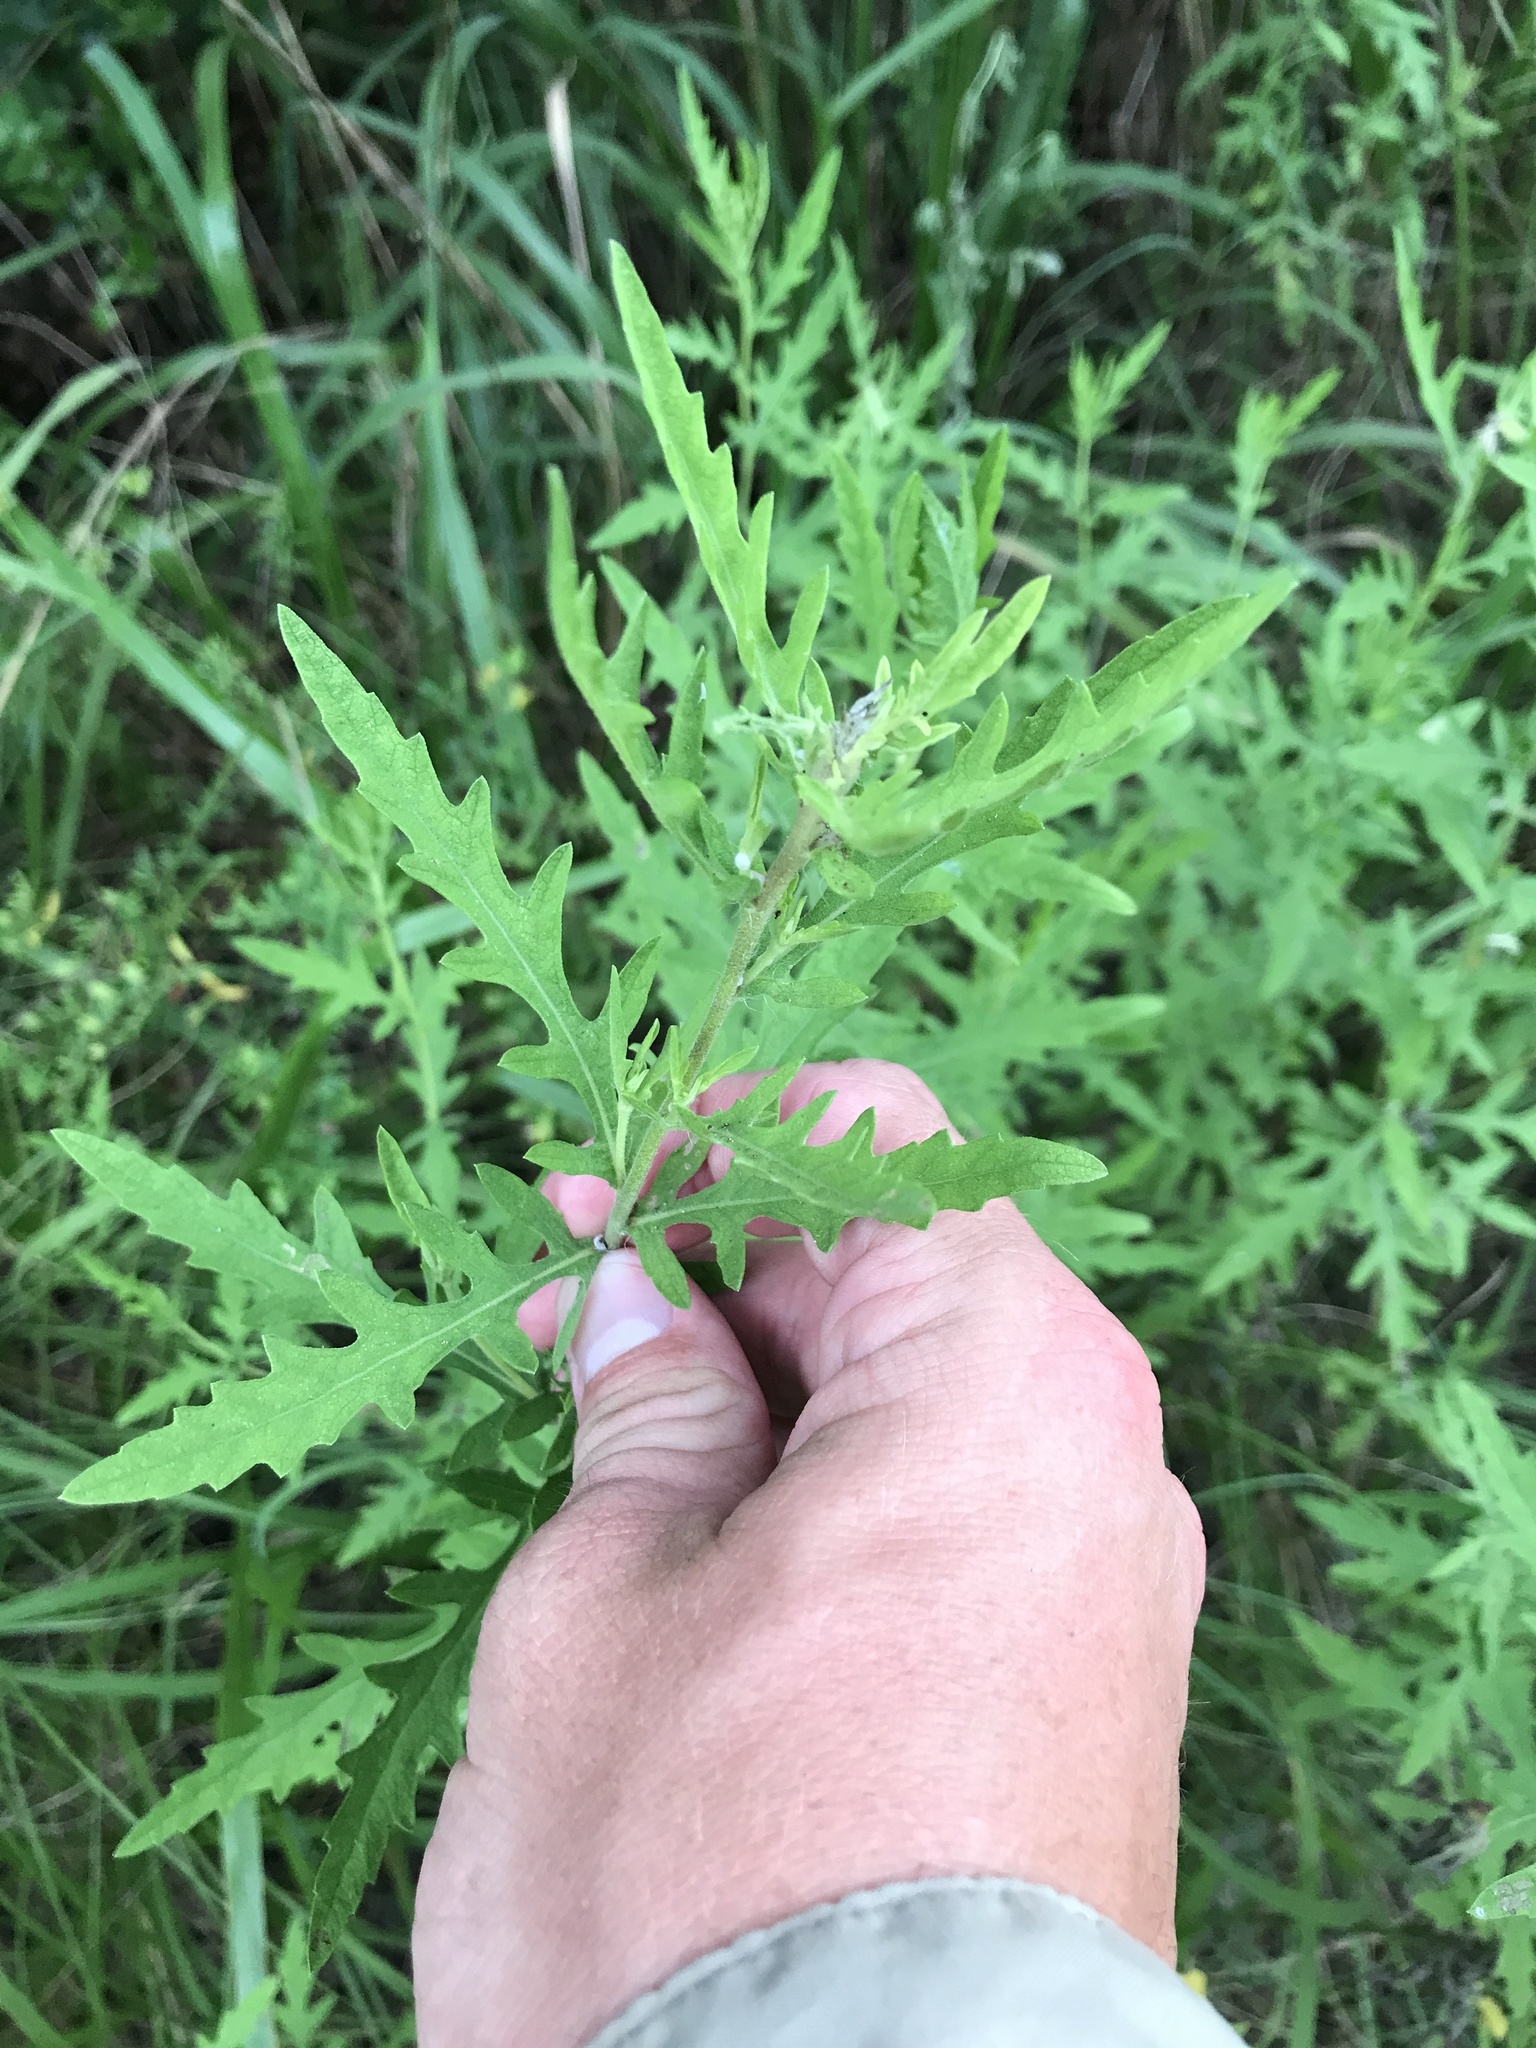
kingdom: Plantae
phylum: Tracheophyta
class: Magnoliopsida
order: Asterales
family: Asteraceae
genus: Ambrosia
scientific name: Ambrosia psilostachya
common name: Perennial ragweed
